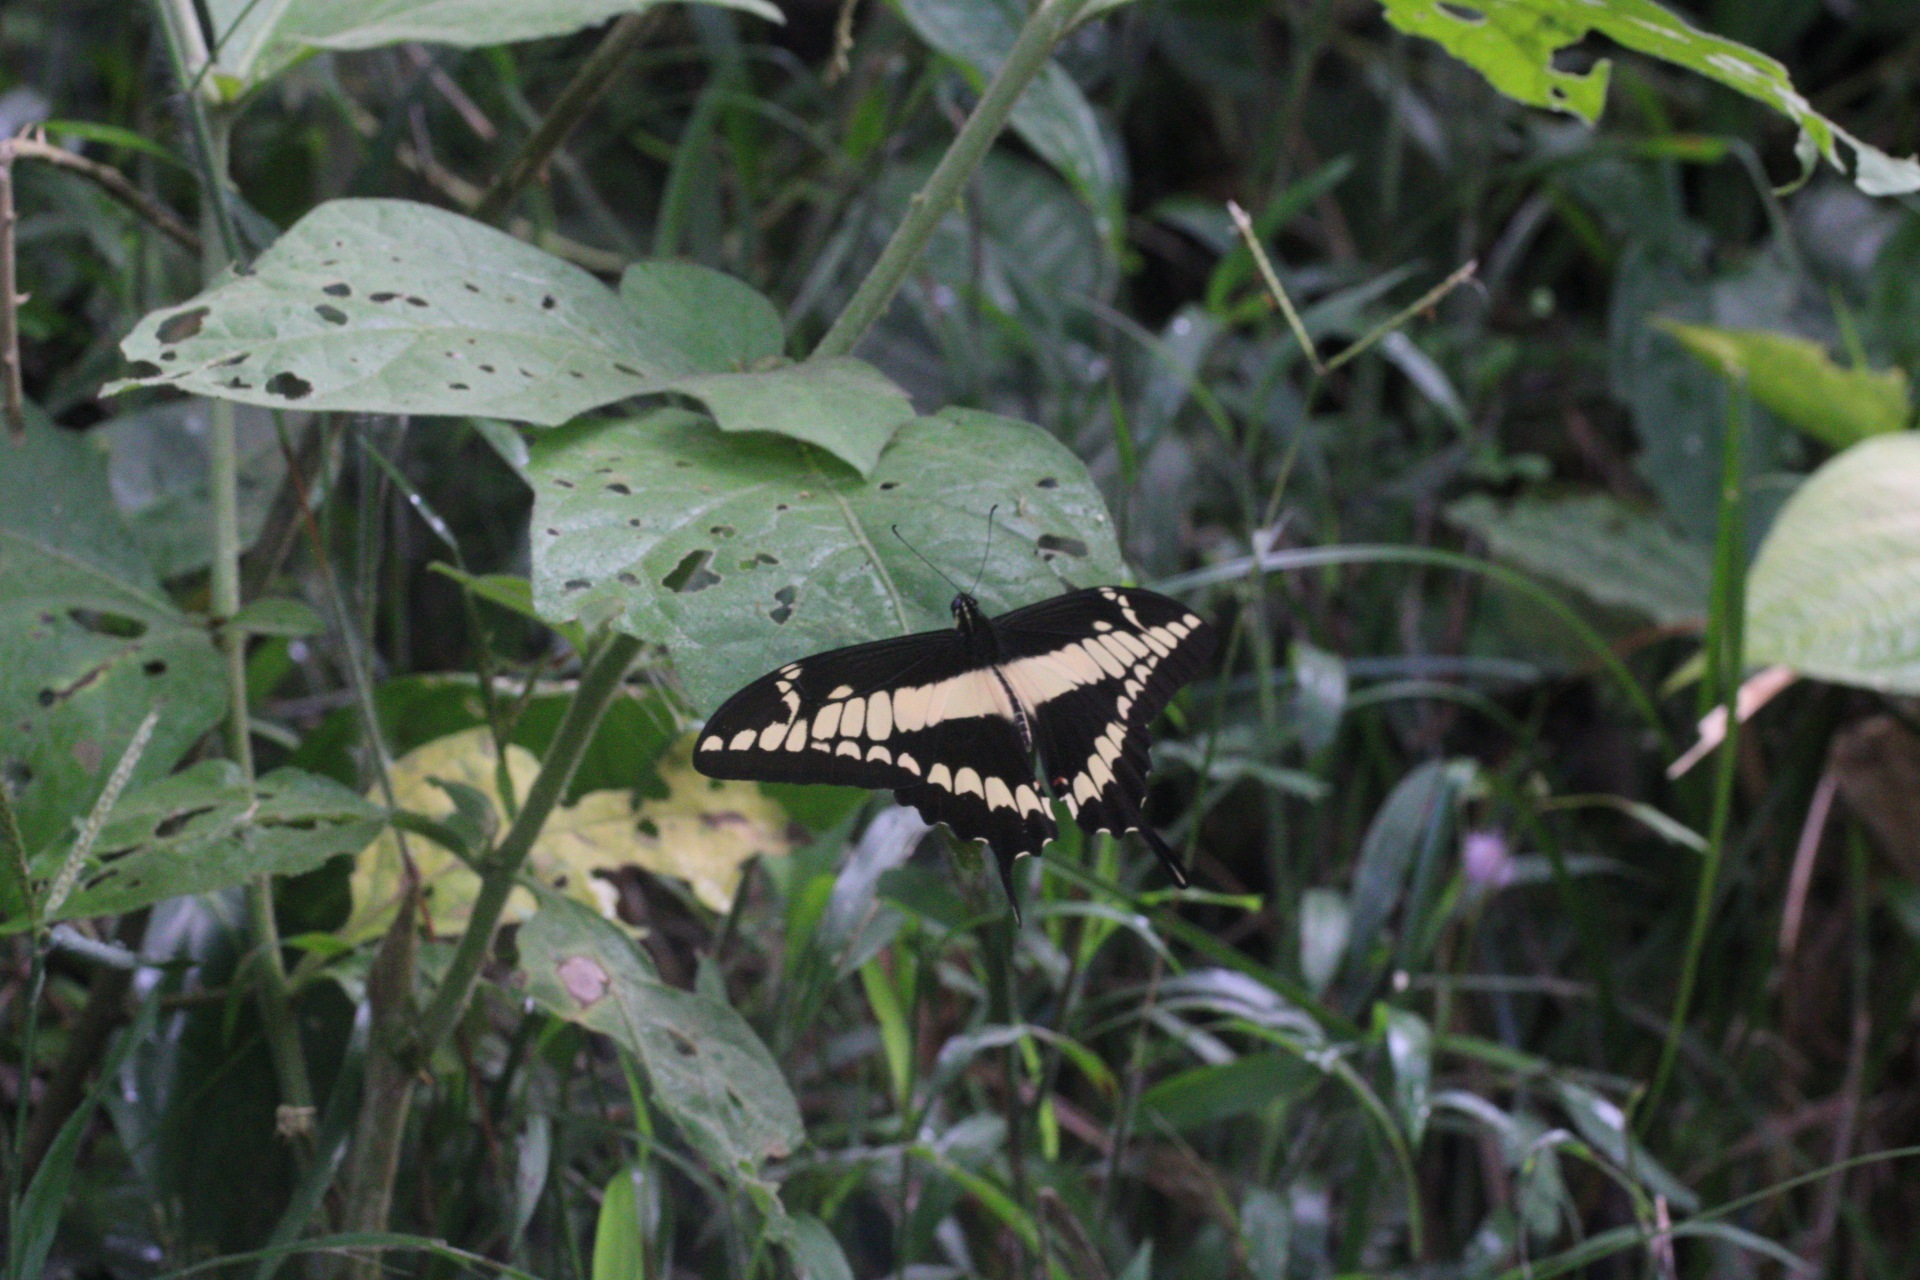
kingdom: Animalia
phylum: Arthropoda
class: Insecta
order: Lepidoptera
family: Papilionidae
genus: Papilio
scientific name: Papilio thoas
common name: King swallowtail
